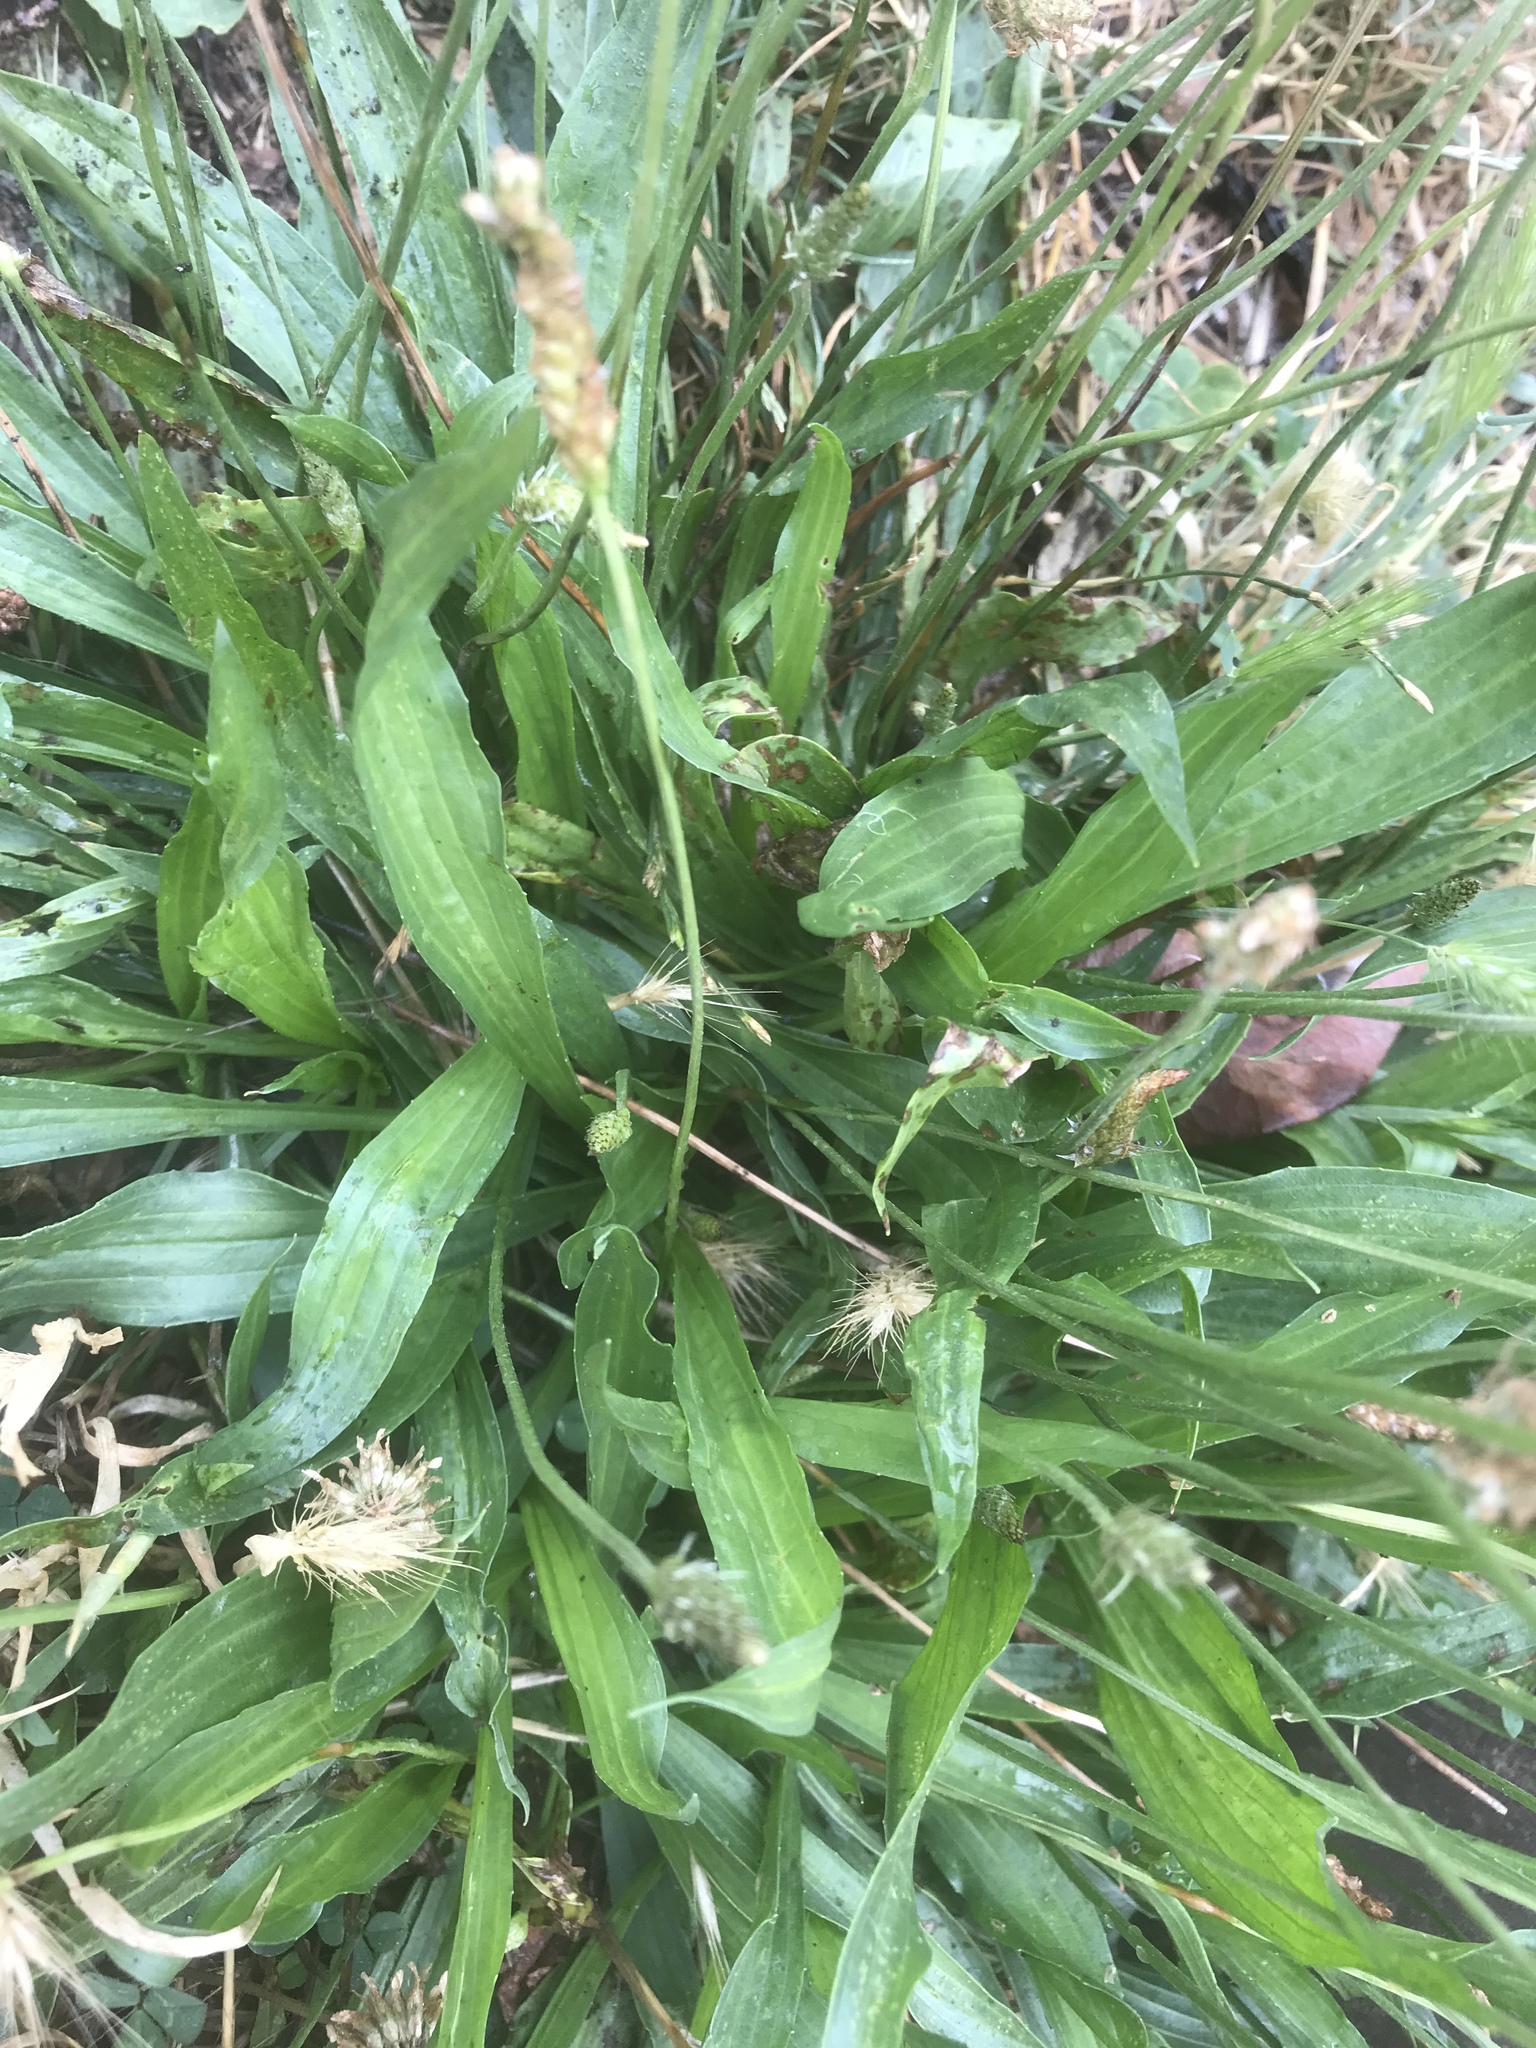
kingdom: Plantae
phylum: Tracheophyta
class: Magnoliopsida
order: Lamiales
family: Plantaginaceae
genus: Plantago
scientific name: Plantago lanceolata
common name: Ribwort plantain
